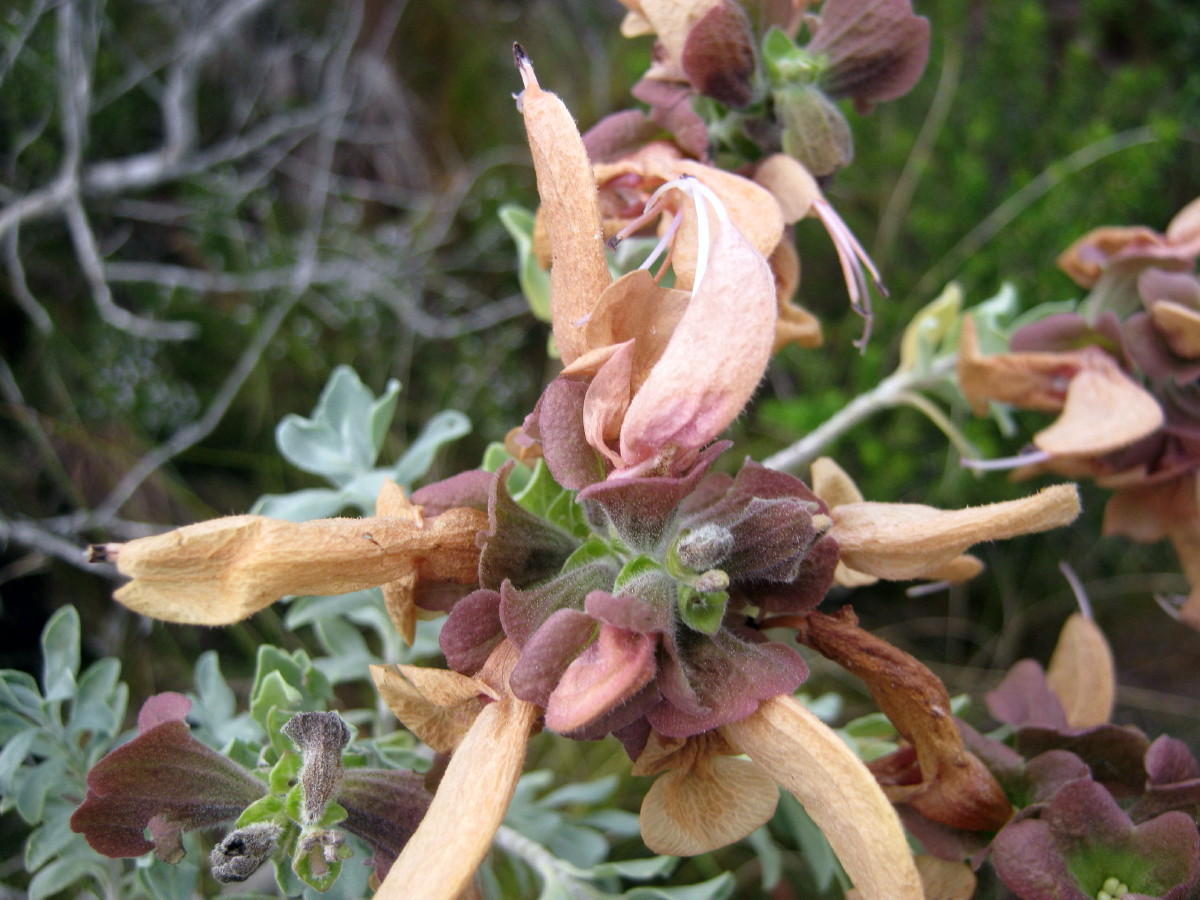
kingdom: Plantae
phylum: Tracheophyta
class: Magnoliopsida
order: Lamiales
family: Lamiaceae
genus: Salvia
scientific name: Salvia aurea
